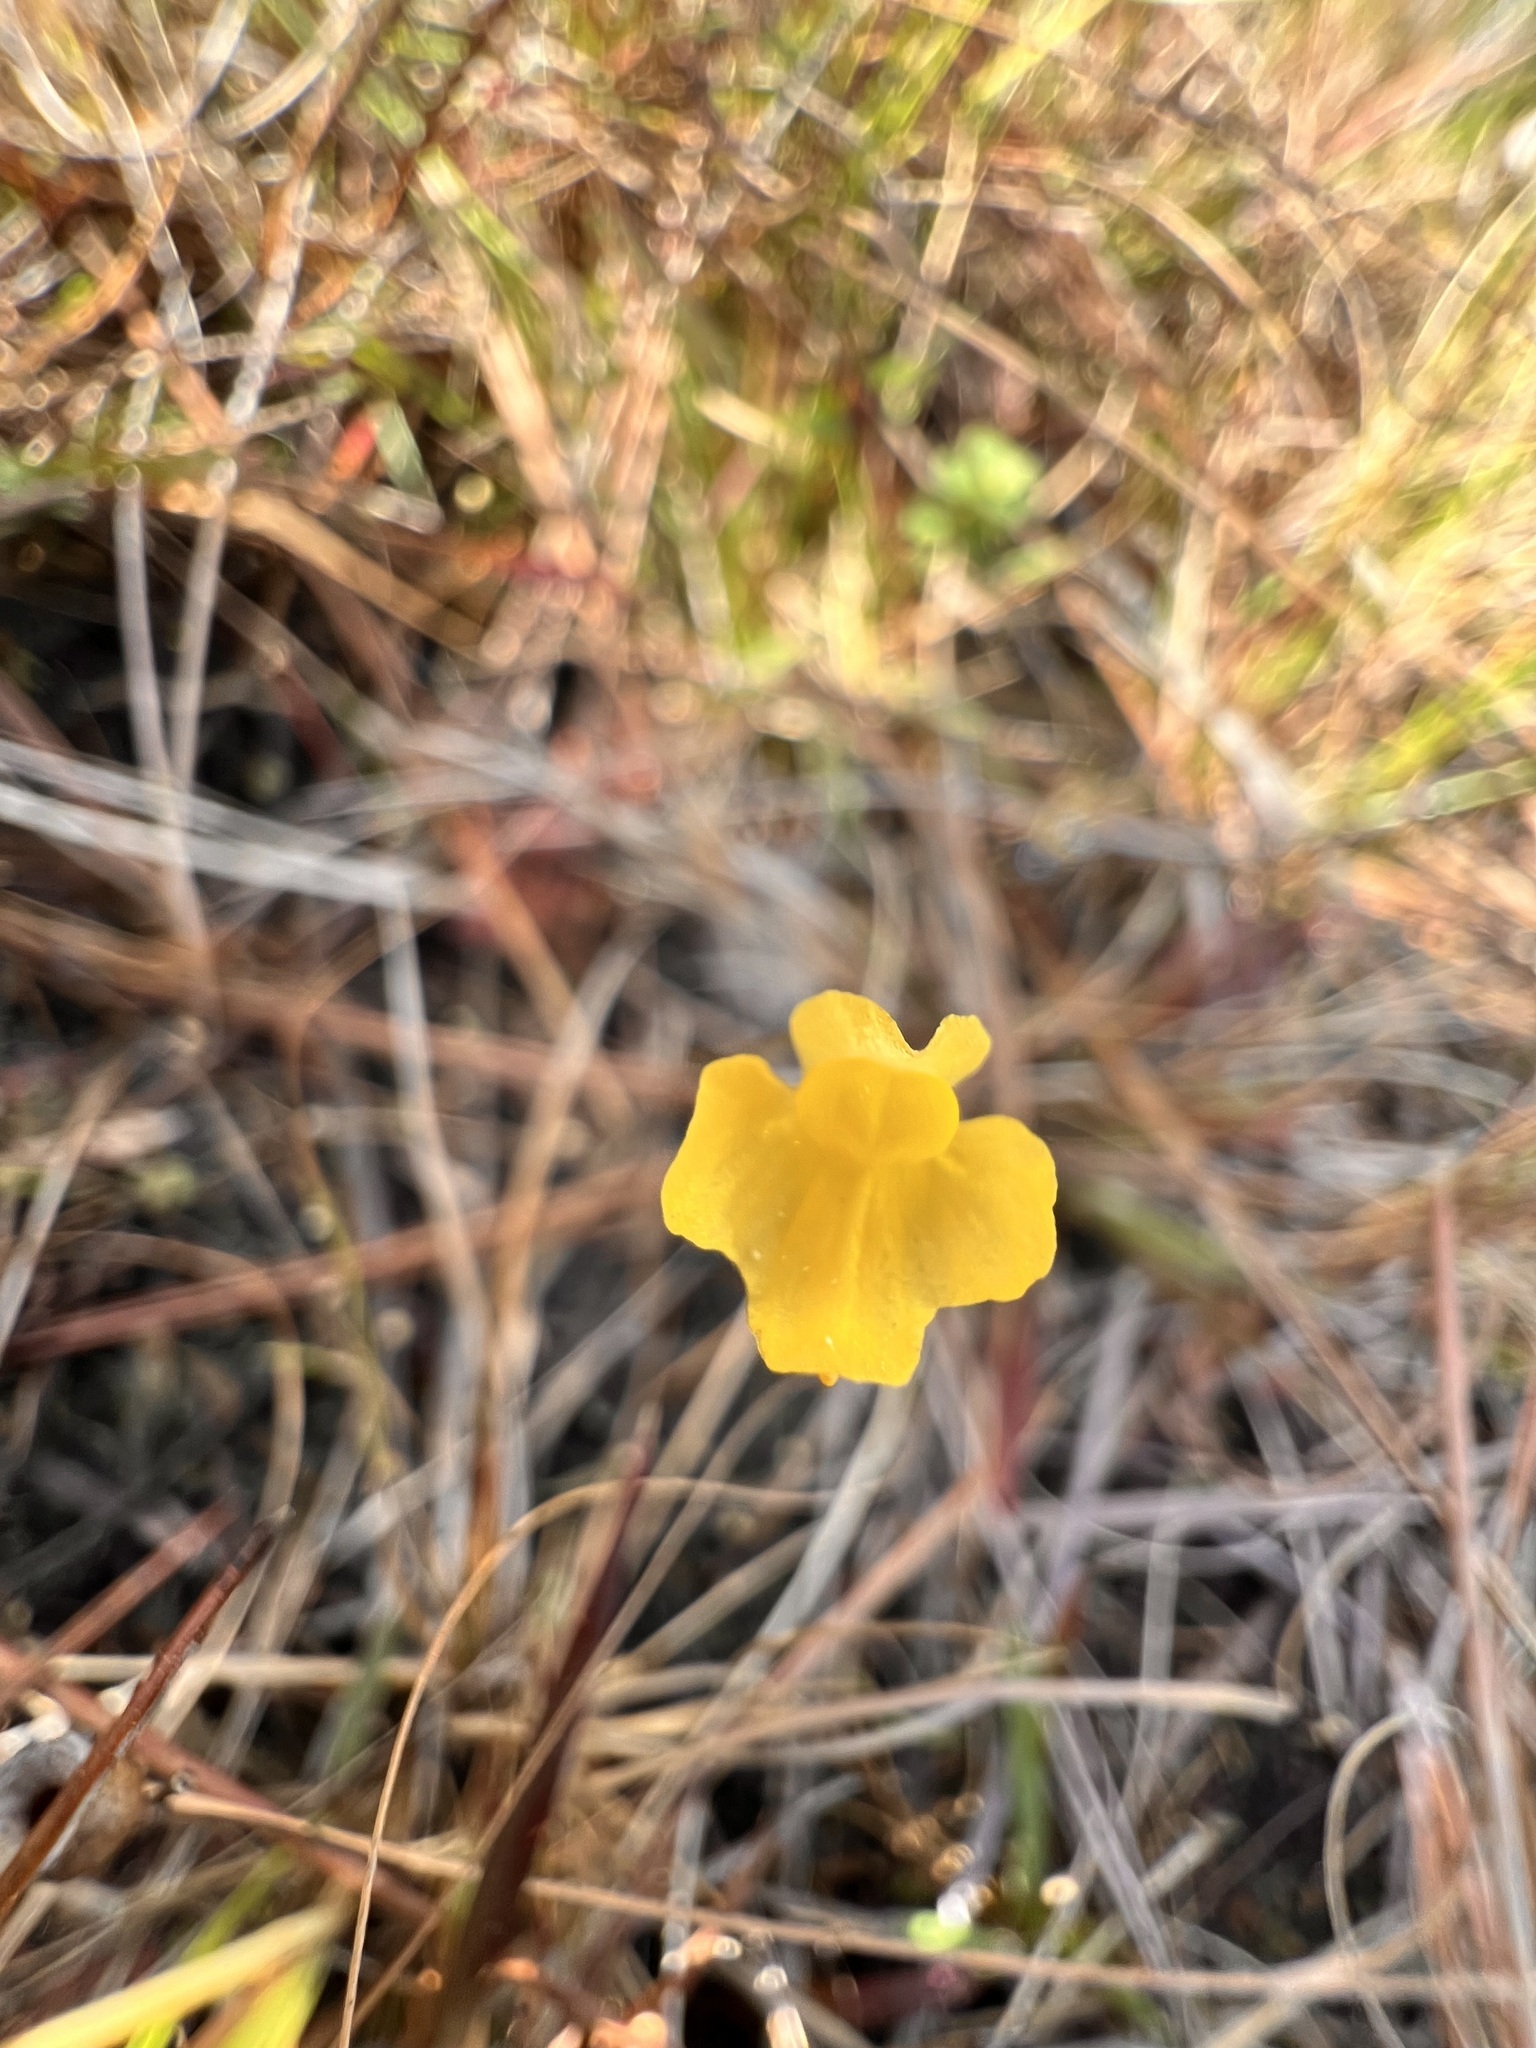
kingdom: Plantae
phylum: Tracheophyta
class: Magnoliopsida
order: Lamiales
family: Lentibulariaceae
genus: Utricularia
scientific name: Utricularia subulata
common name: Tiny bladderwort
